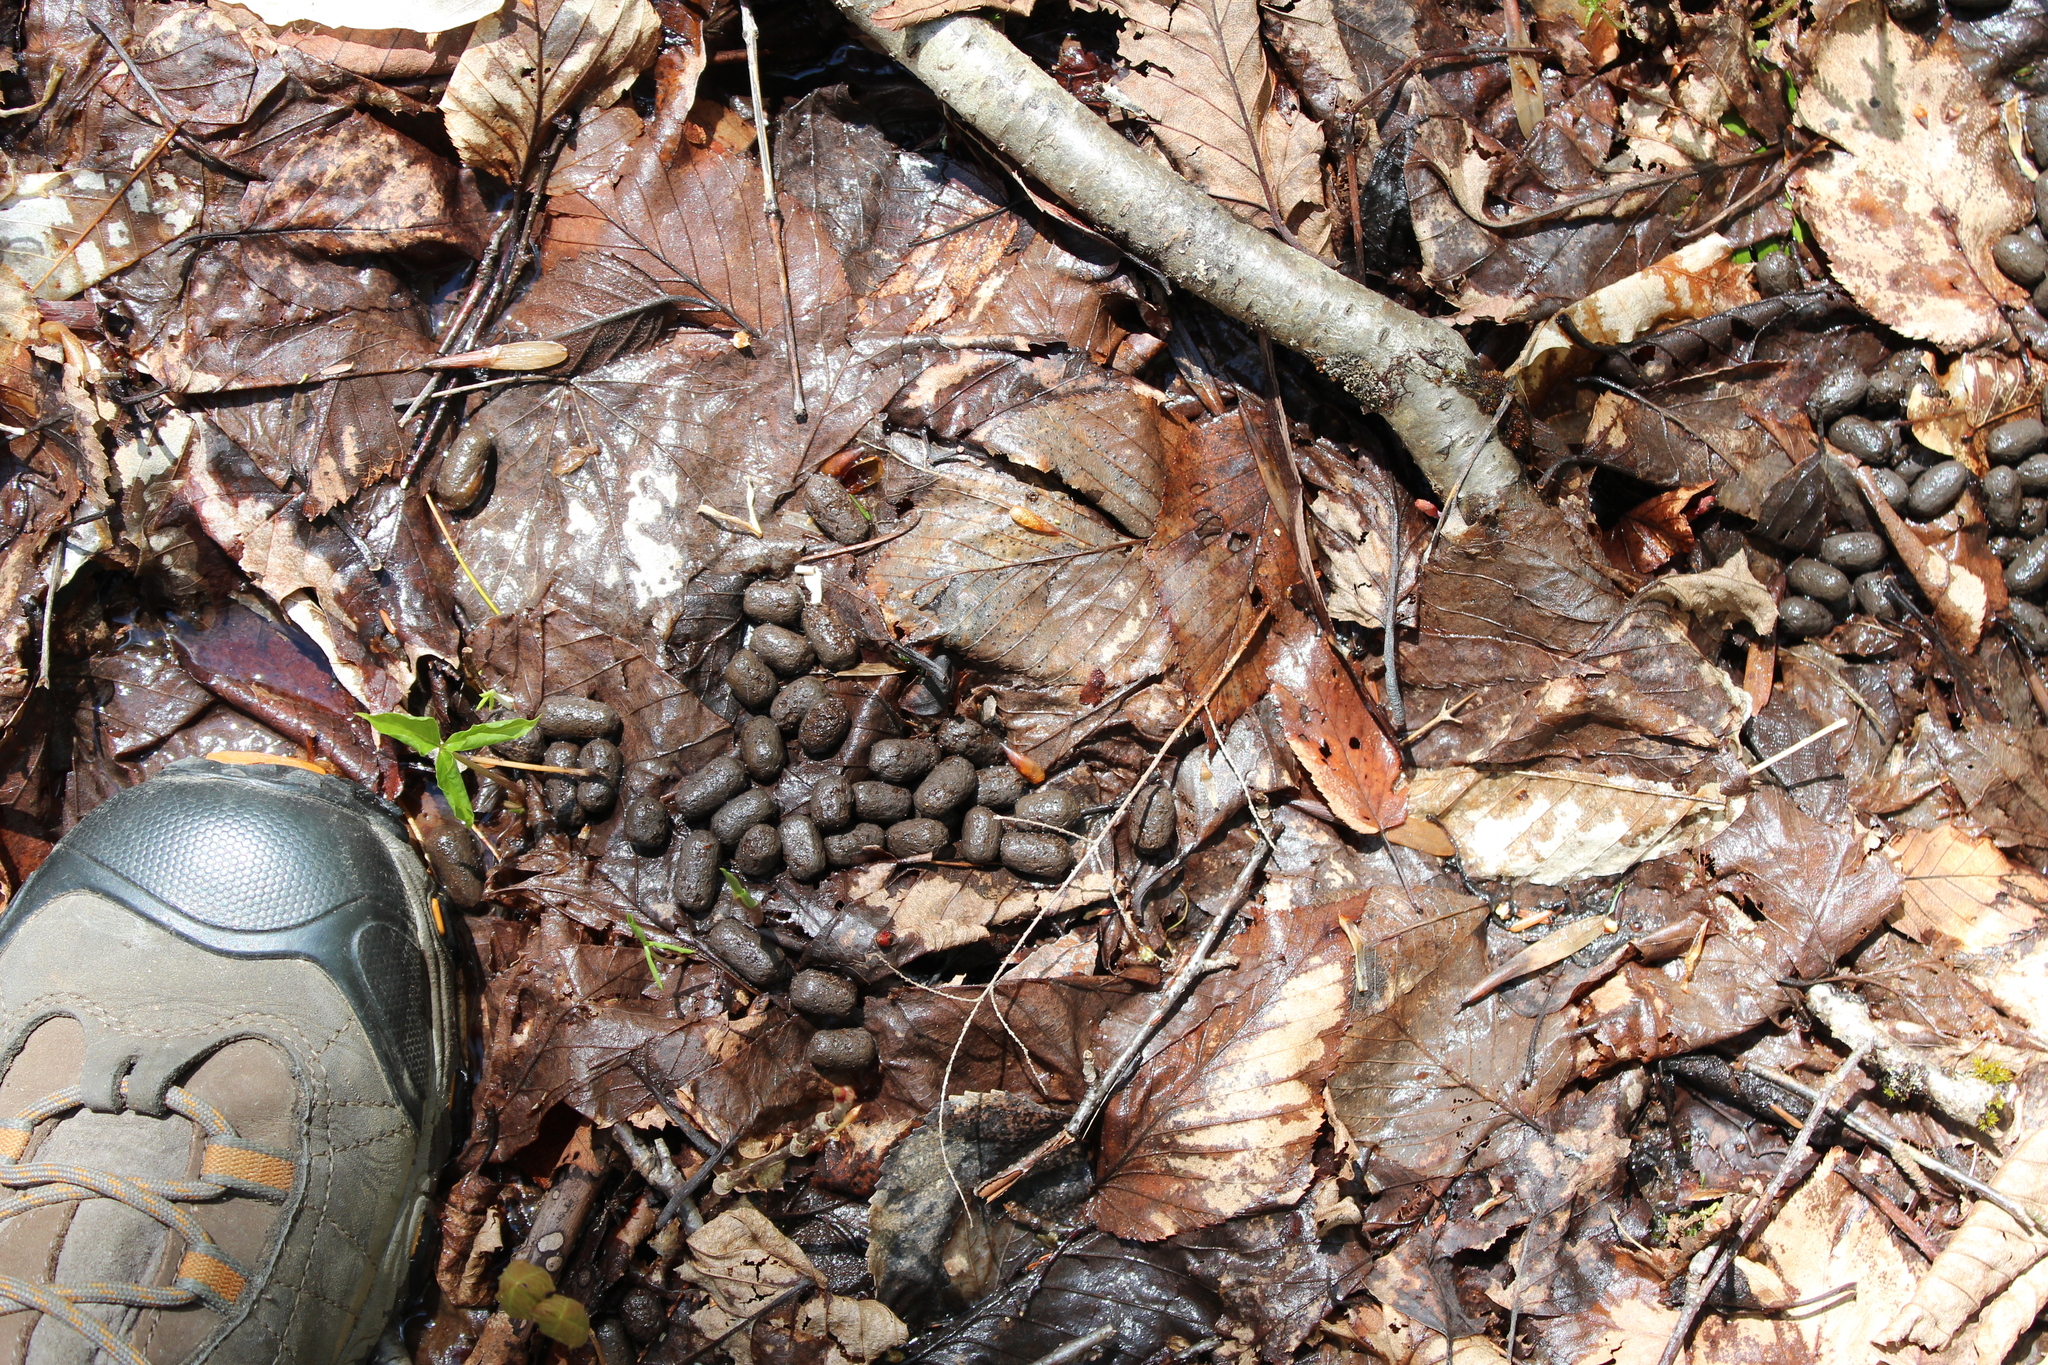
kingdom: Animalia
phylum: Chordata
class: Mammalia
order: Artiodactyla
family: Cervidae
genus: Odocoileus
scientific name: Odocoileus virginianus
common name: White-tailed deer
